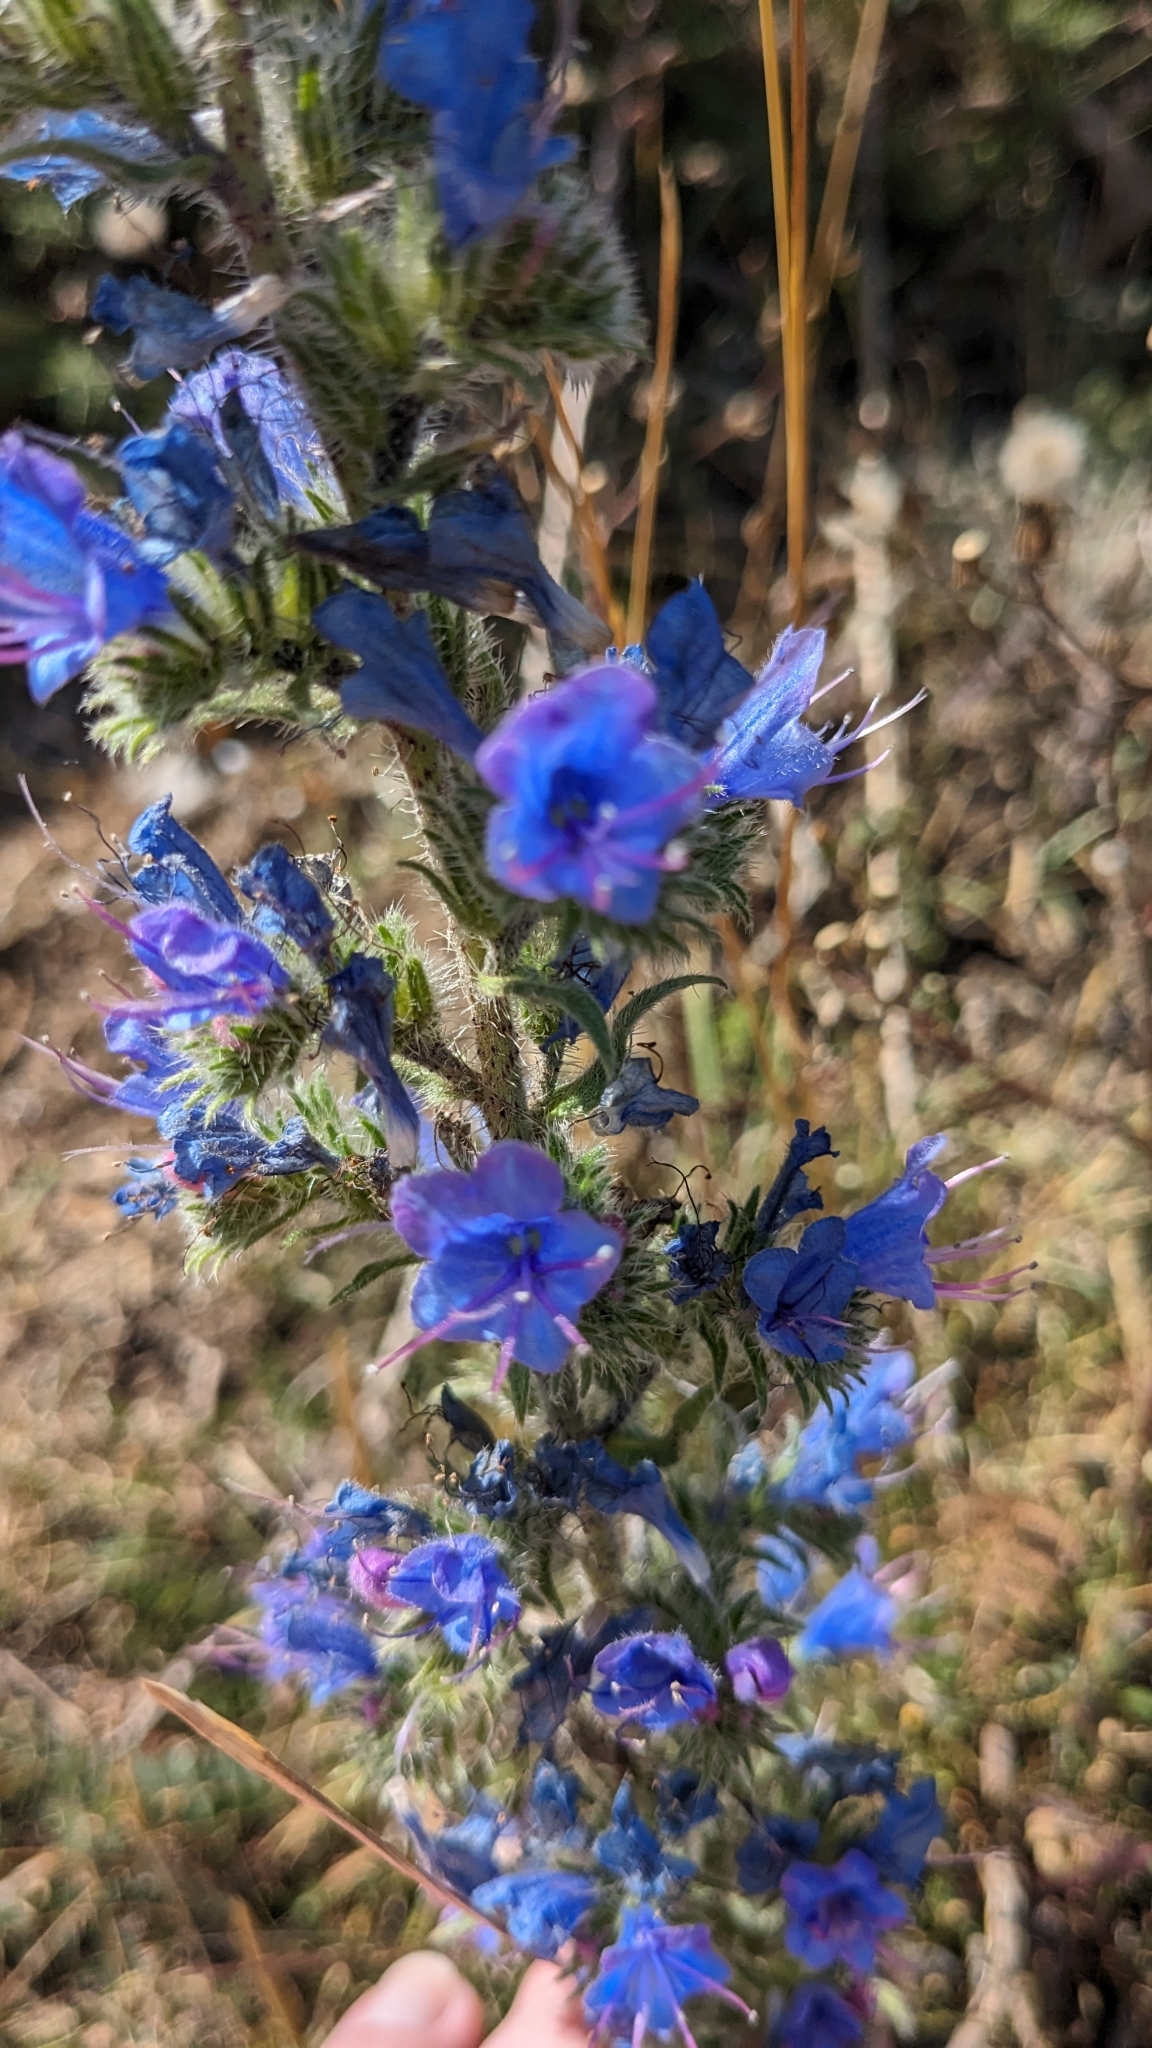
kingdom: Plantae
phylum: Tracheophyta
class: Magnoliopsida
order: Boraginales
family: Boraginaceae
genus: Echium
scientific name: Echium vulgare
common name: Common viper's bugloss
